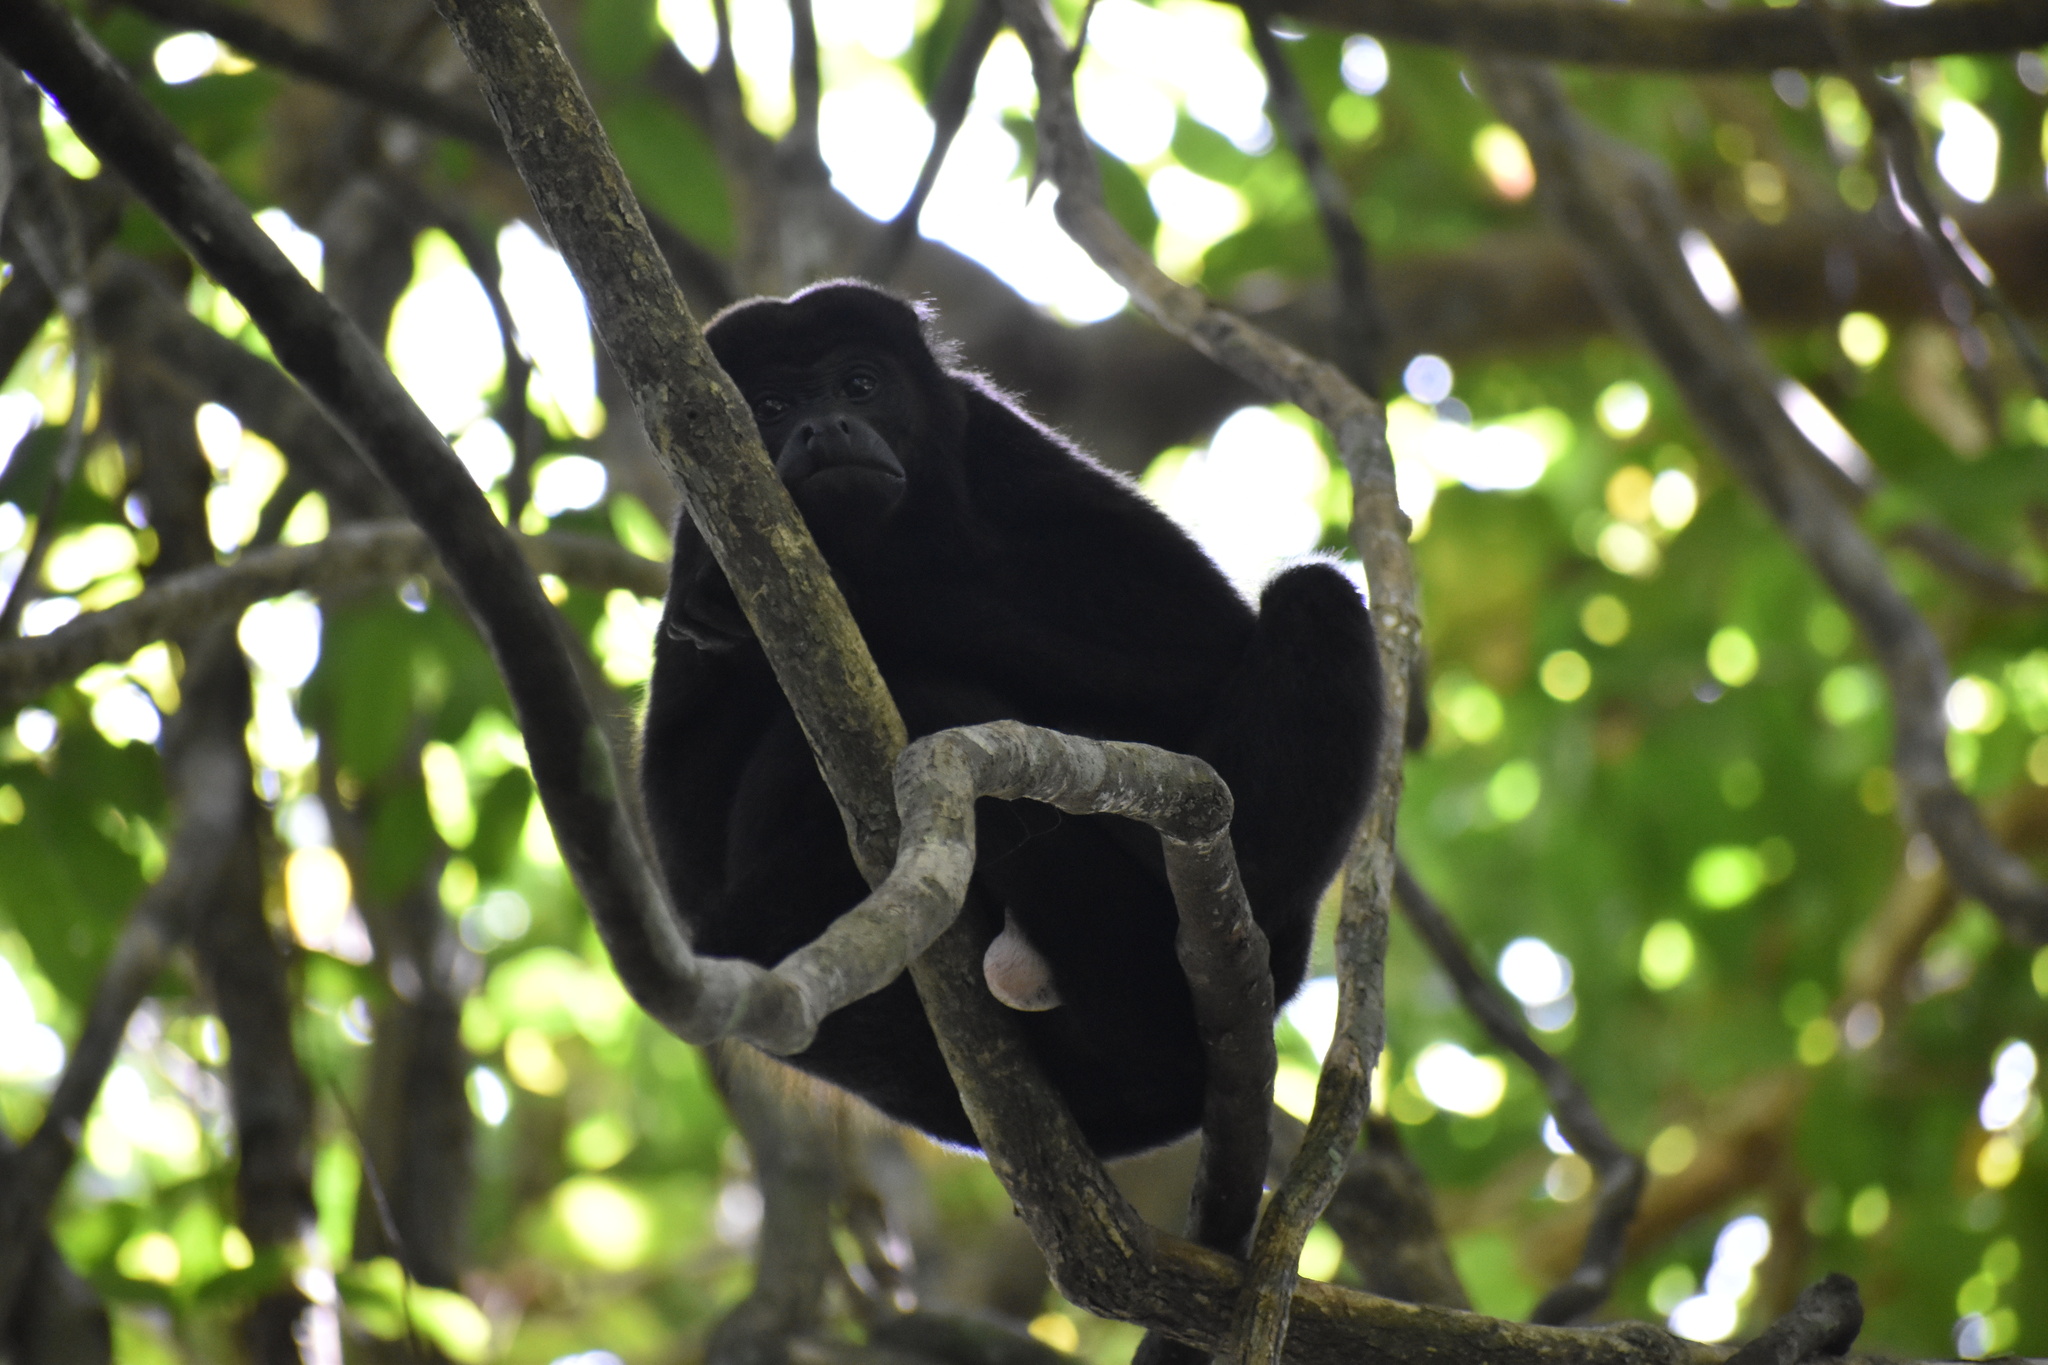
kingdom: Animalia
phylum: Chordata
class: Mammalia
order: Primates
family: Atelidae
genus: Alouatta
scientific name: Alouatta palliata
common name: Mantled howler
